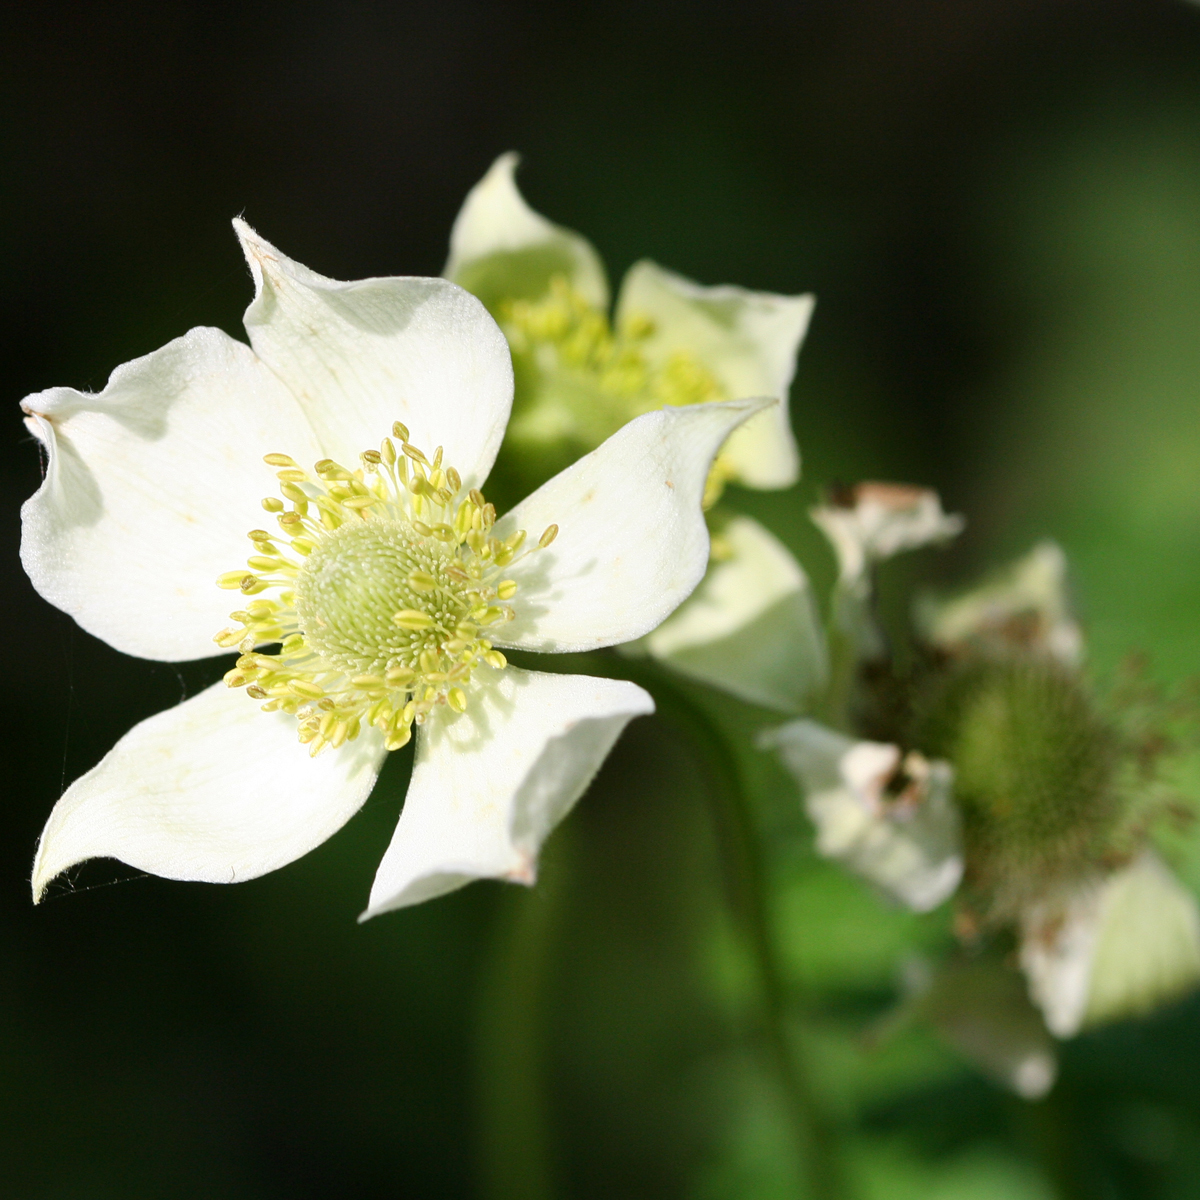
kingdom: Plantae
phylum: Tracheophyta
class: Magnoliopsida
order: Ranunculales
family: Ranunculaceae
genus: Anemone
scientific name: Anemone virginiana
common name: Tall anemone
